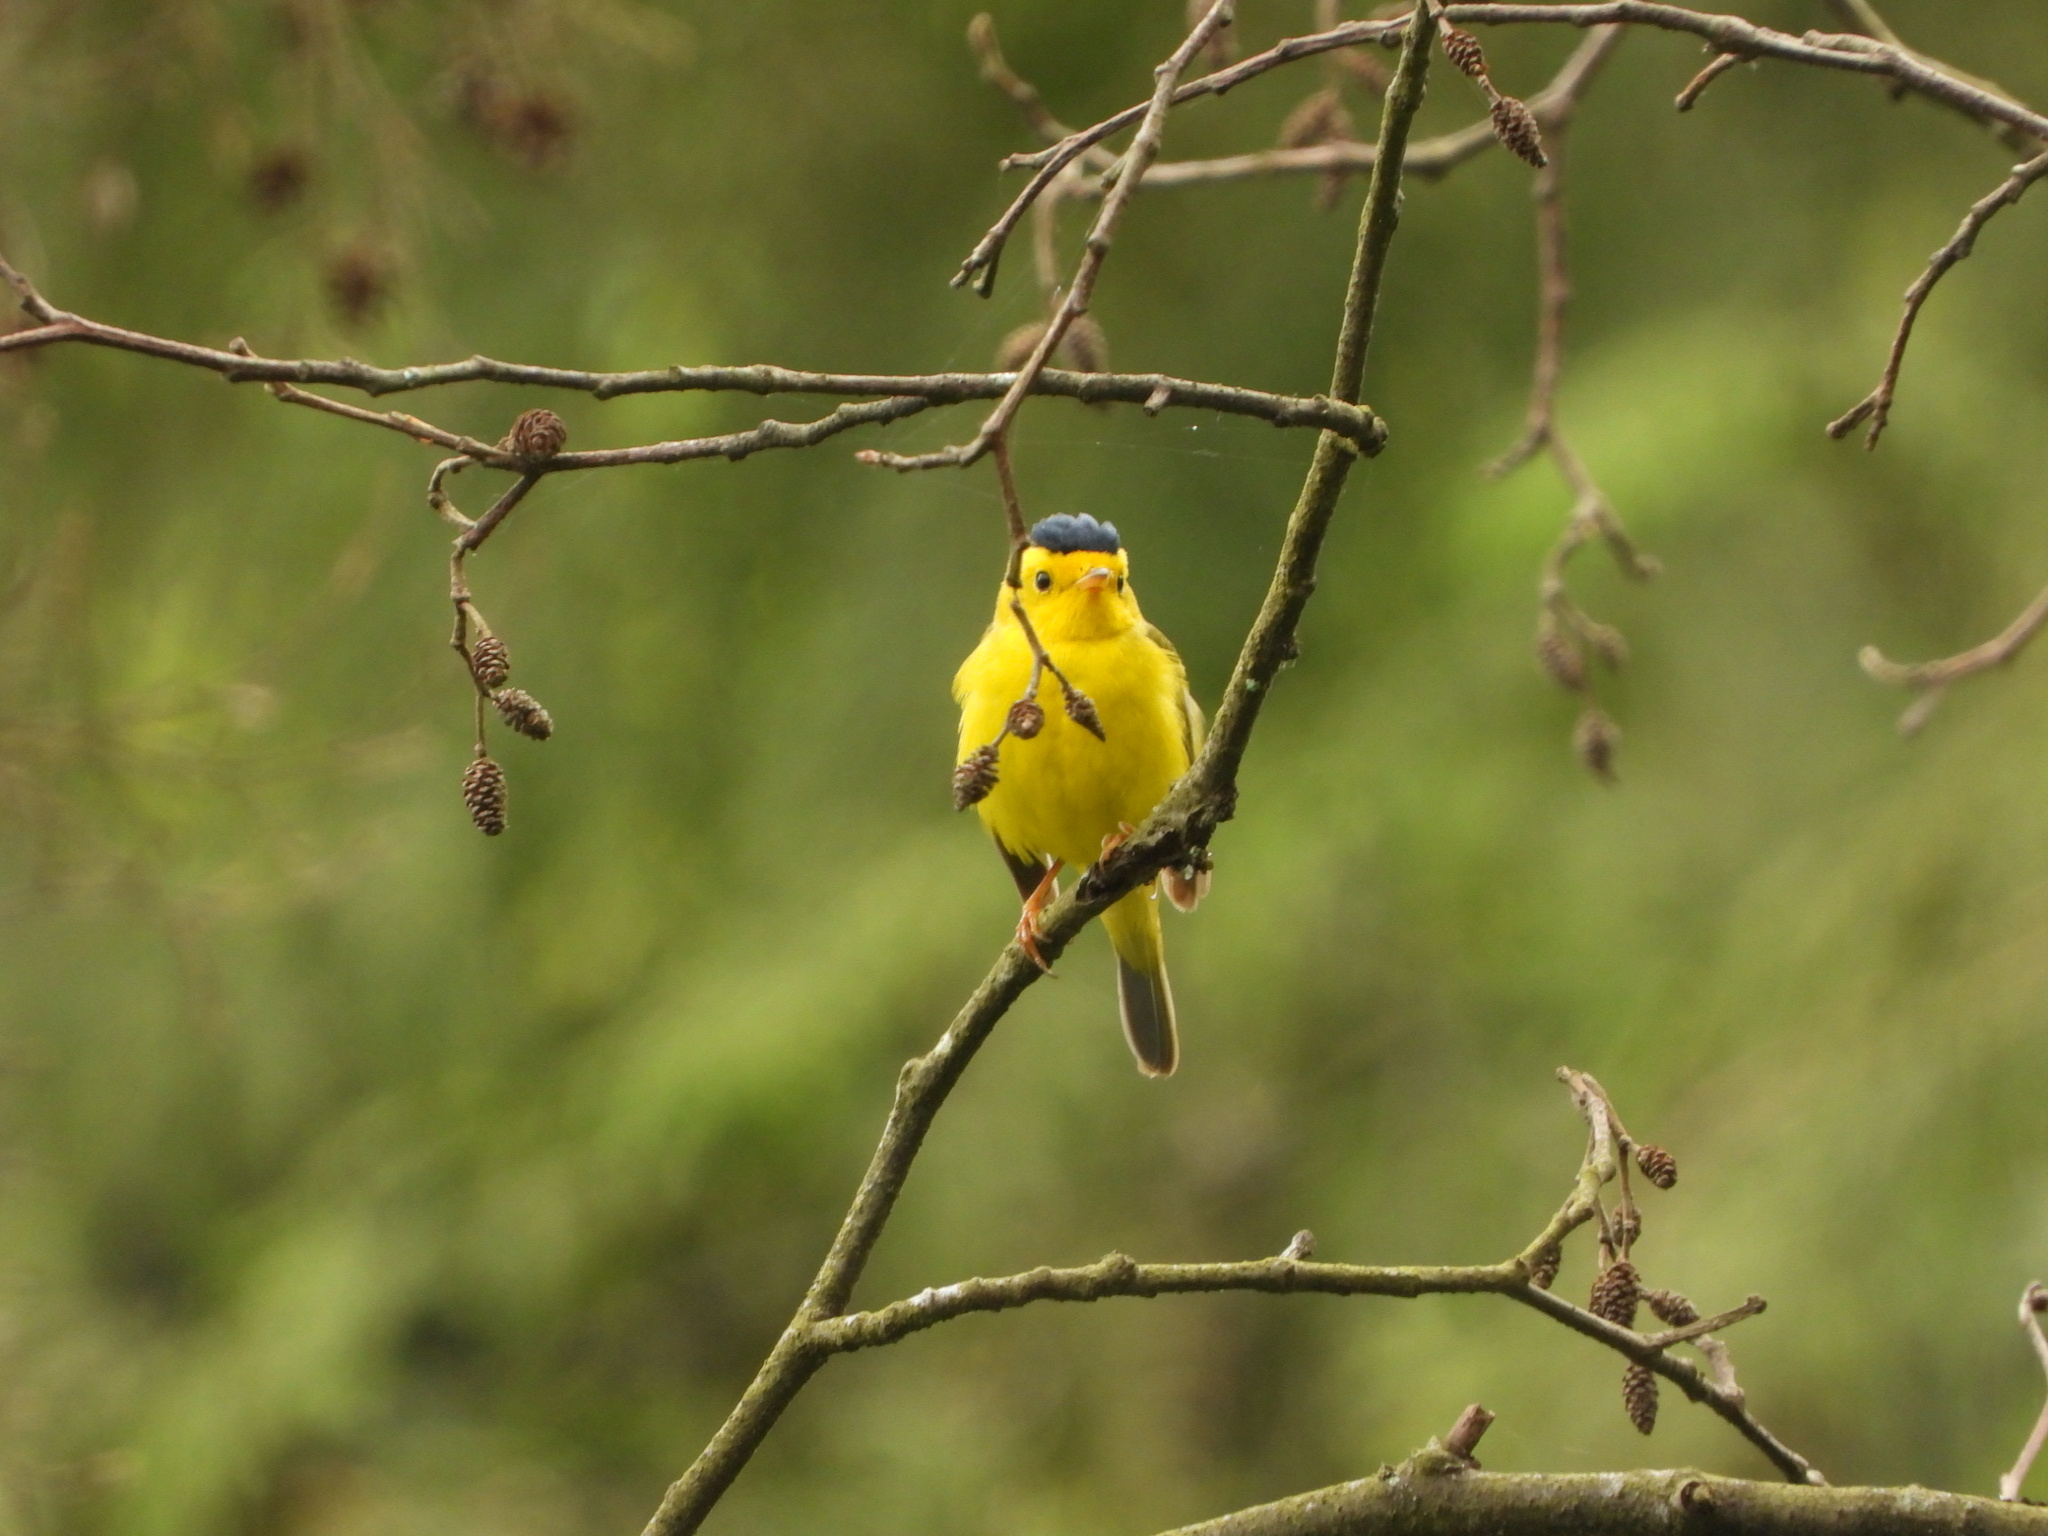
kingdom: Animalia
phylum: Chordata
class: Aves
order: Passeriformes
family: Parulidae
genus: Cardellina
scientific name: Cardellina pusilla
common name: Wilson's warbler
